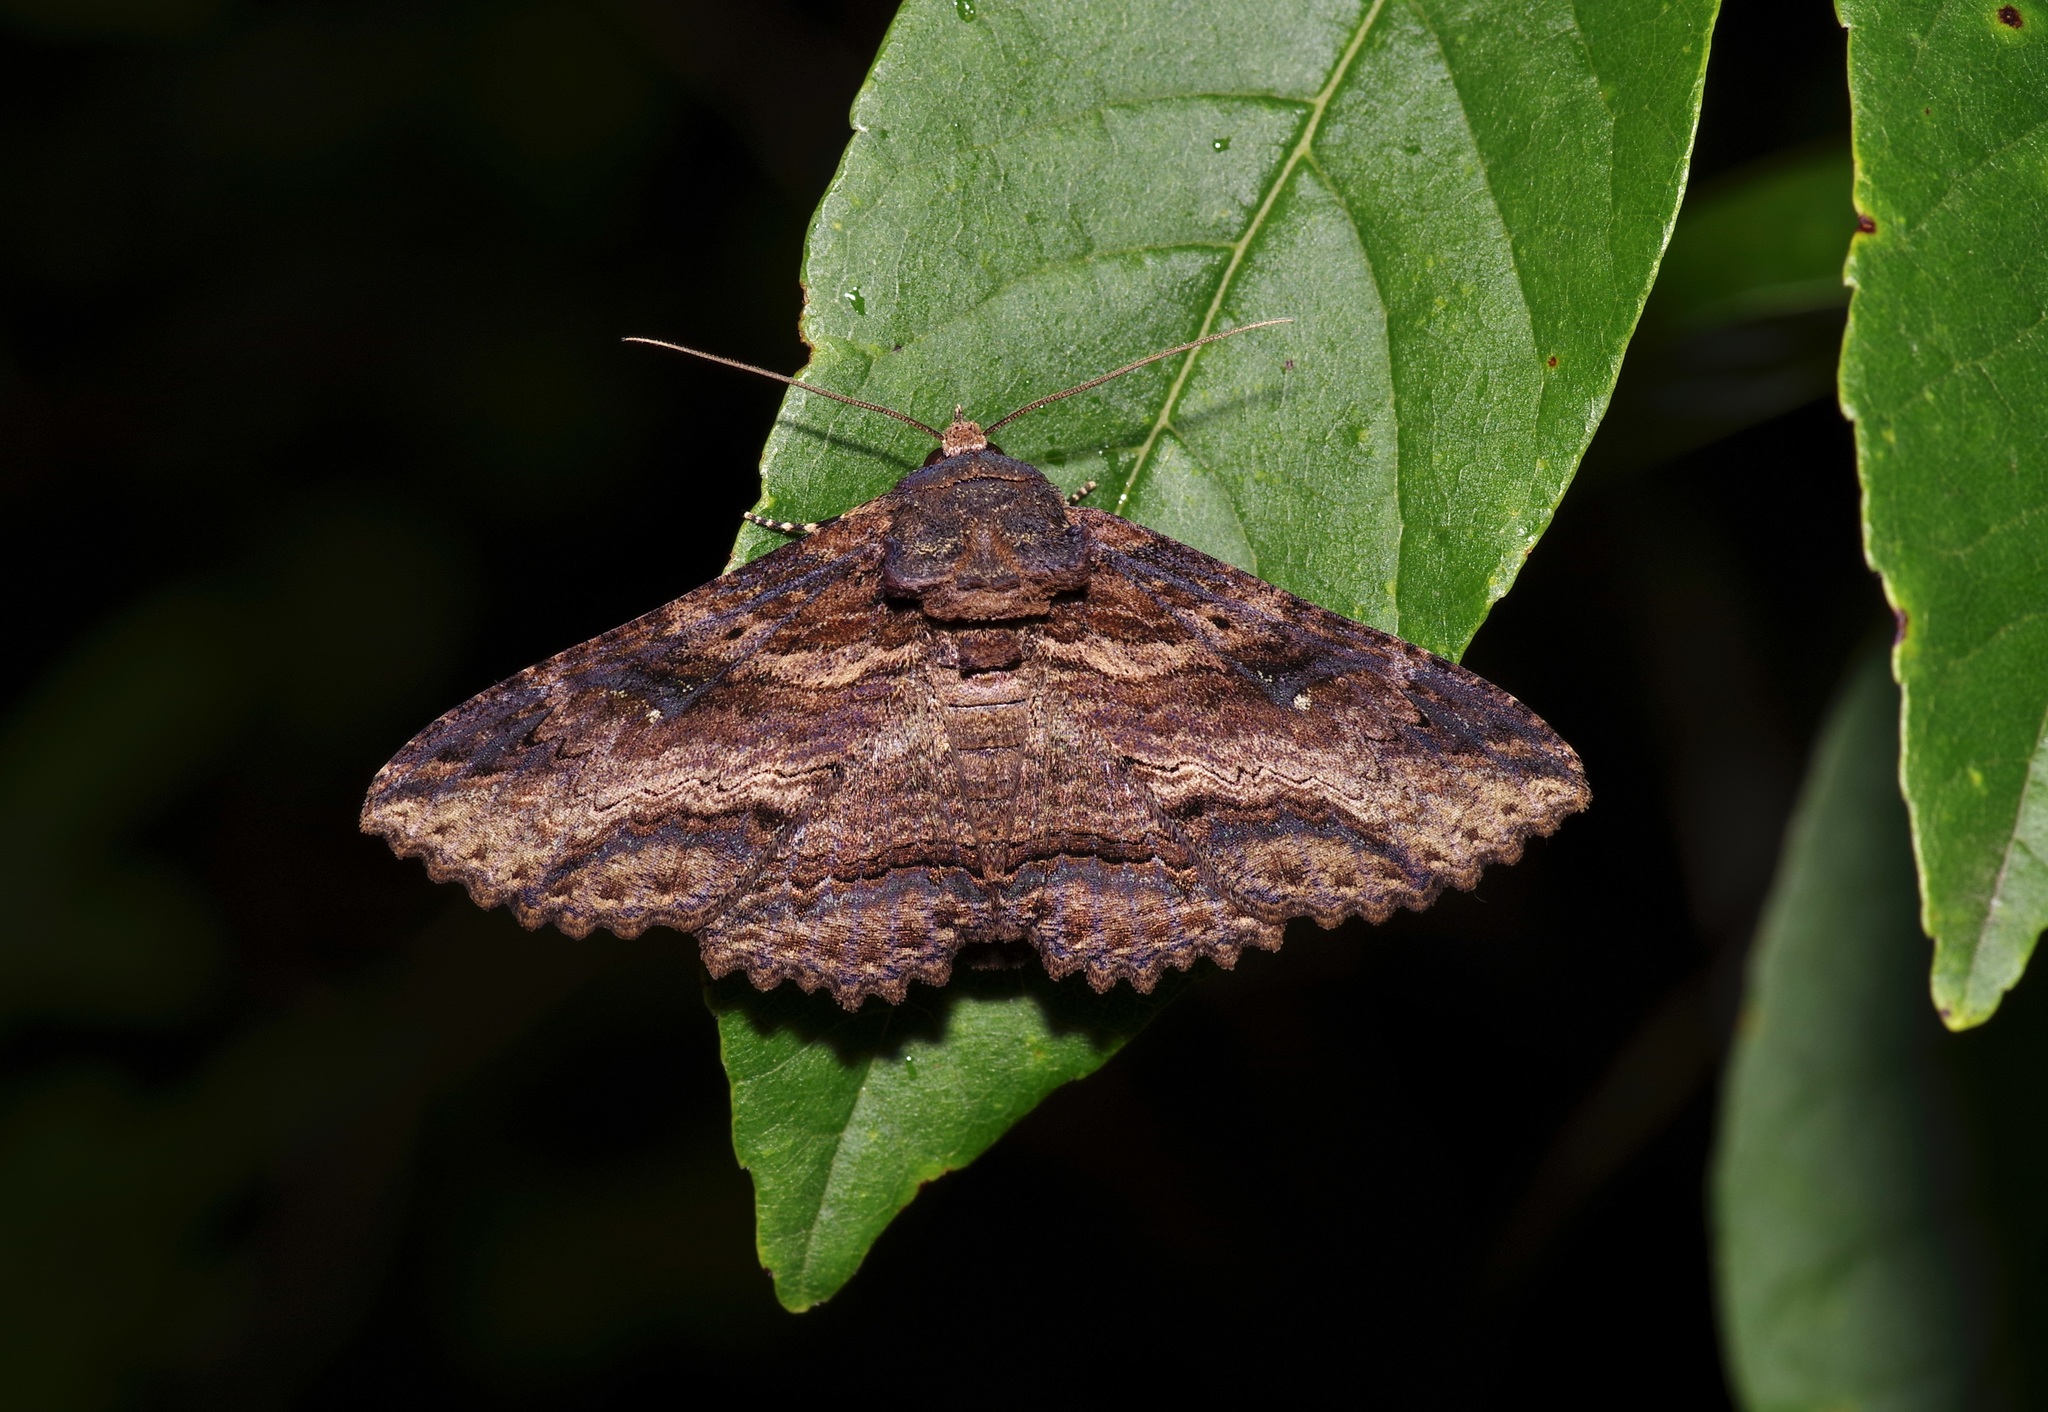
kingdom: Animalia
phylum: Arthropoda
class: Insecta
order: Lepidoptera
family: Erebidae
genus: Zale
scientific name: Zale lunata
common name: Lunate zale moth
